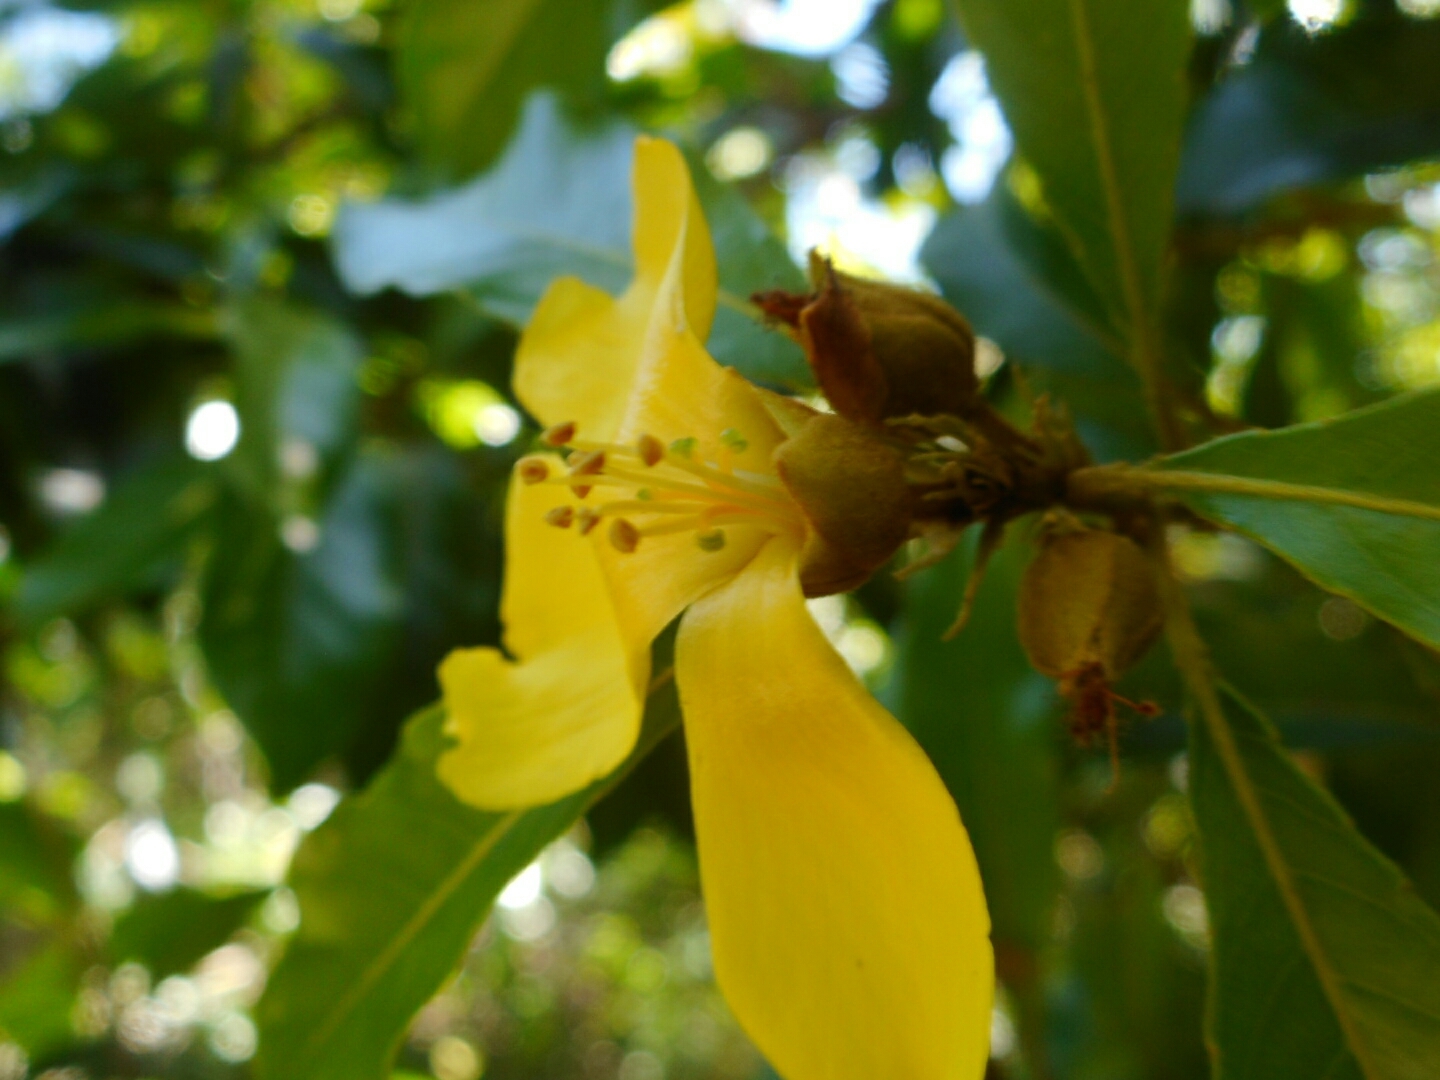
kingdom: Plantae
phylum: Tracheophyta
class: Magnoliopsida
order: Malpighiales
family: Linaceae
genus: Hugonia
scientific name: Hugonia poilanei
